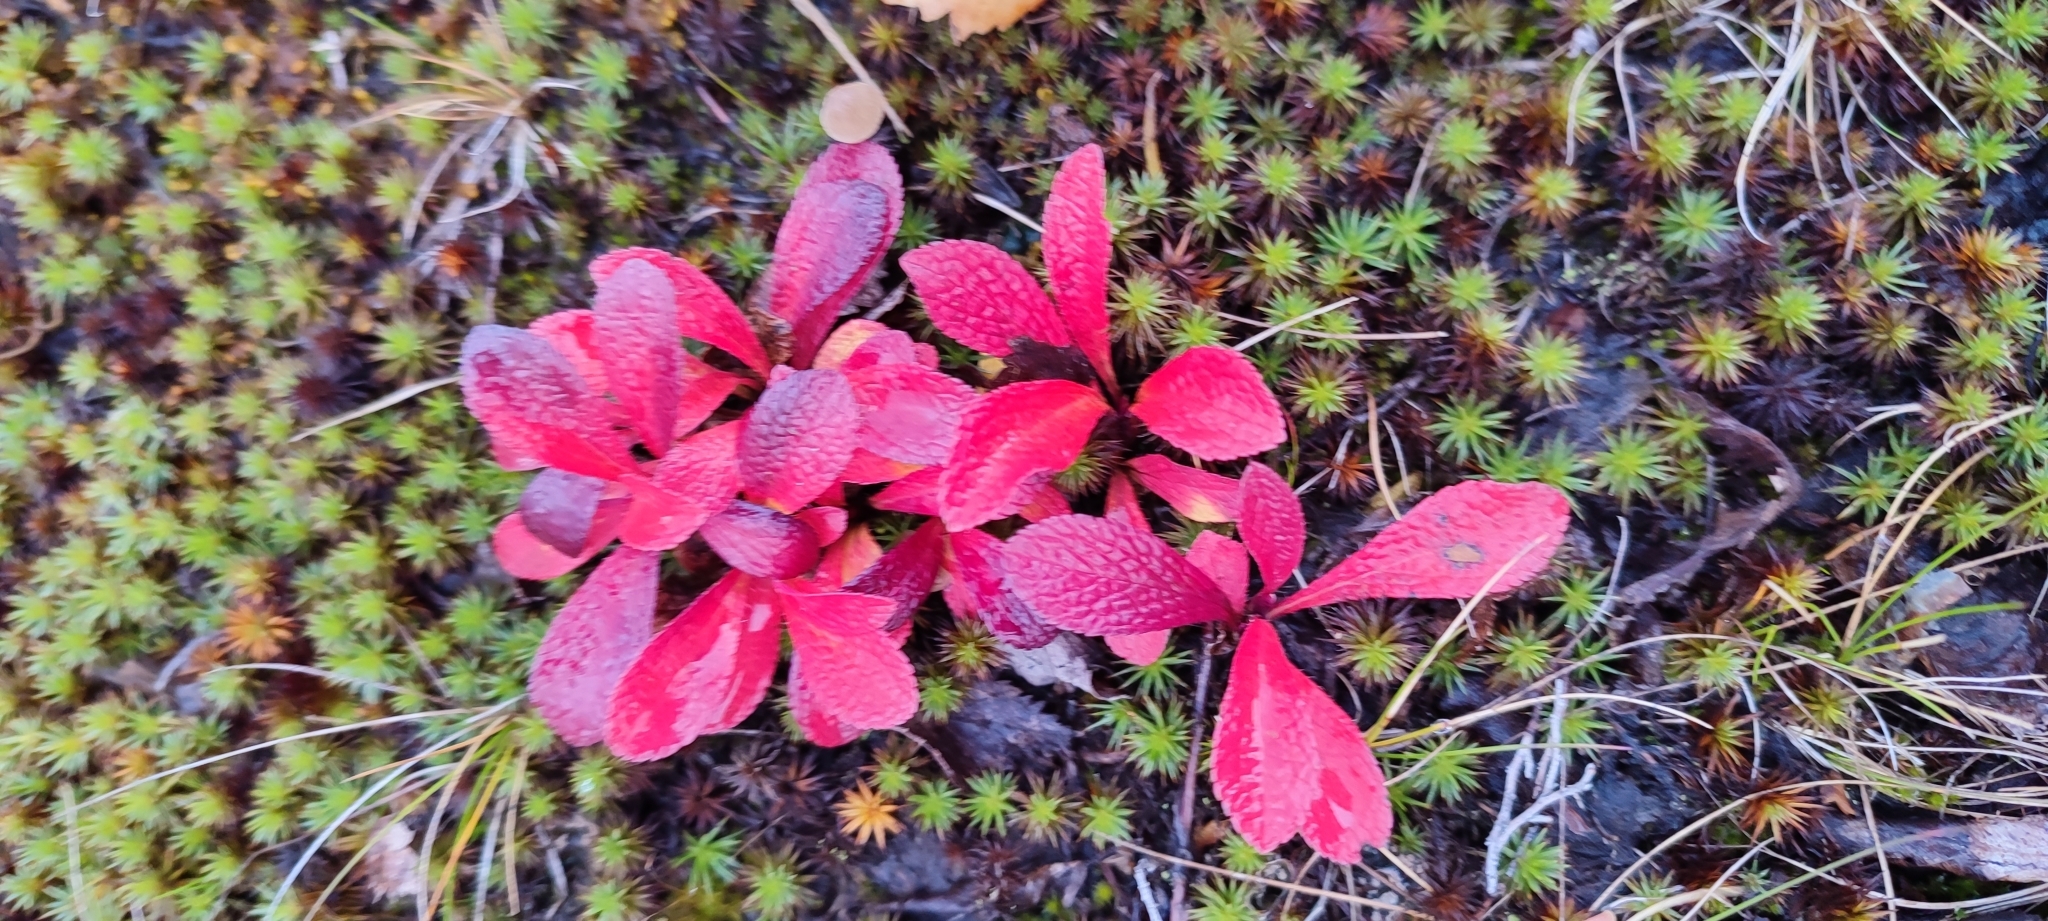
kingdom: Plantae
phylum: Tracheophyta
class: Magnoliopsida
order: Ericales
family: Ericaceae
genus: Arctostaphylos
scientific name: Arctostaphylos alpinus
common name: Alpine bearberry
